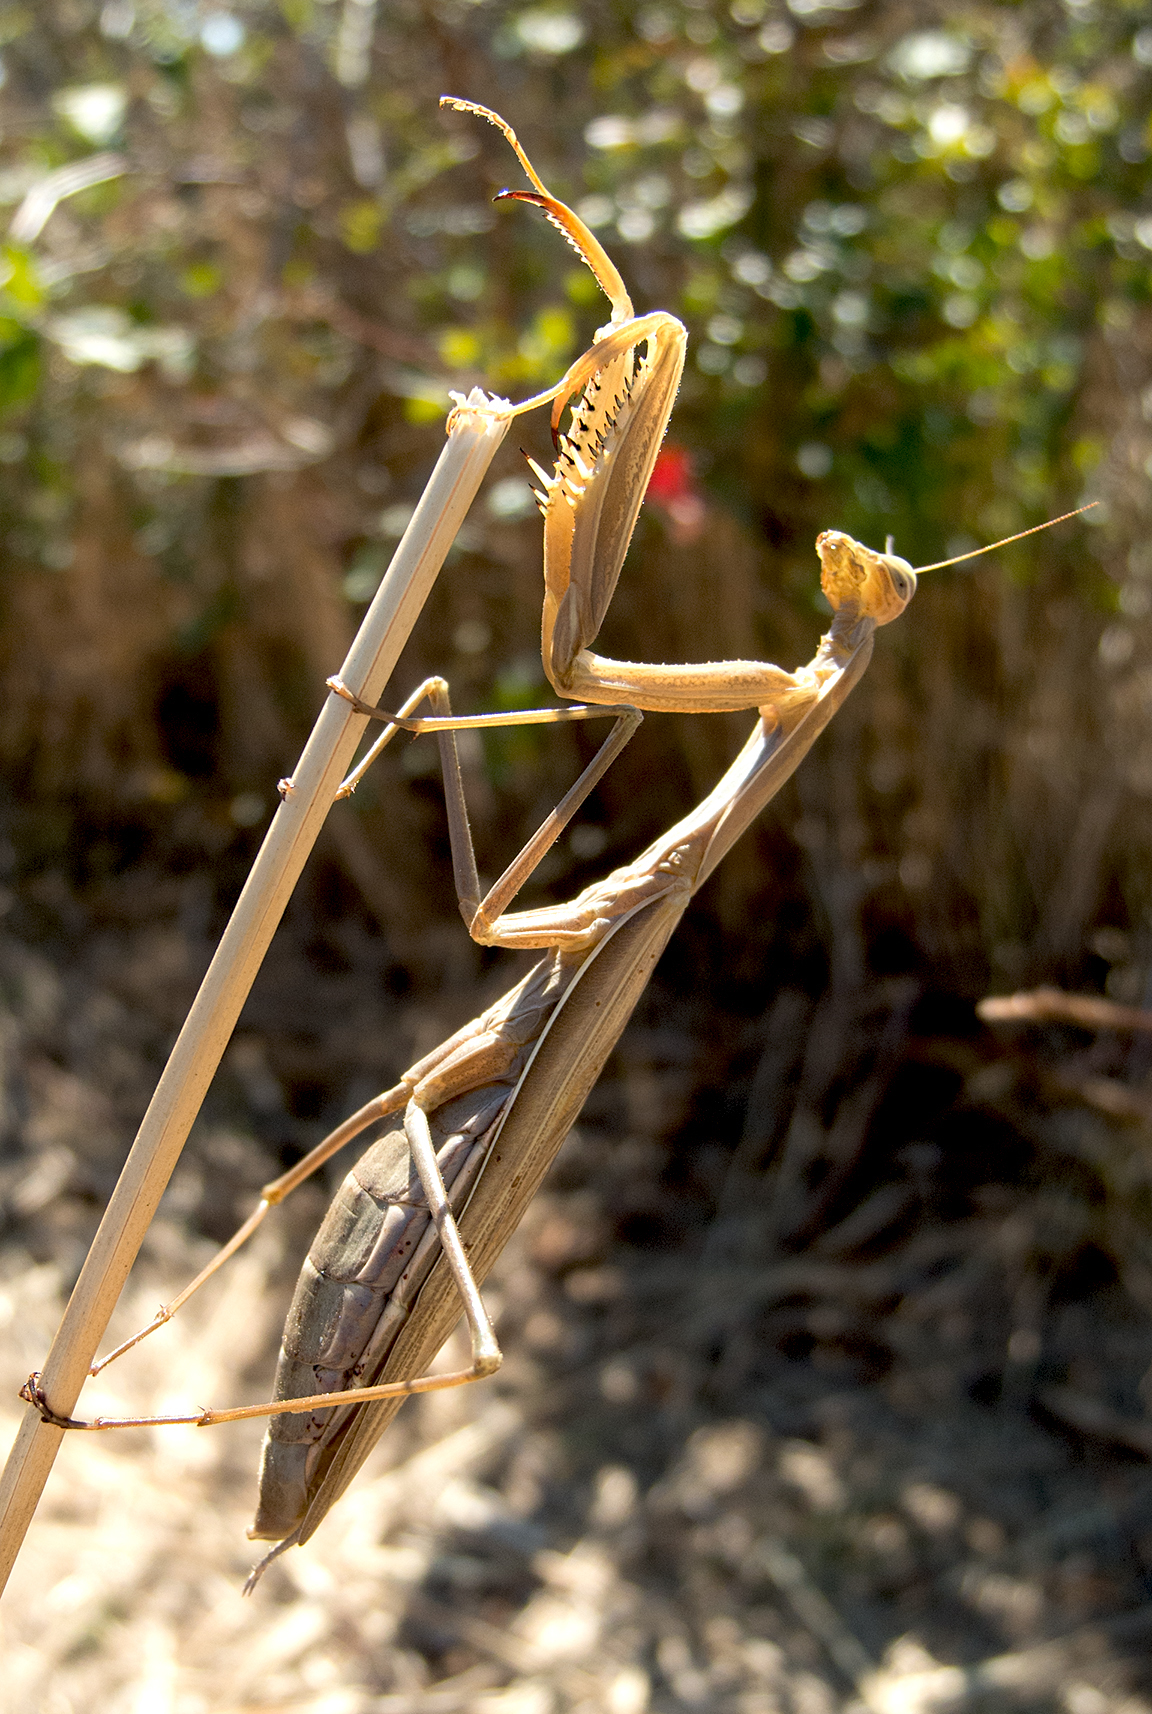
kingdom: Animalia
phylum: Arthropoda
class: Insecta
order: Mantodea
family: Mantidae
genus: Mantis
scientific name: Mantis religiosa
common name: Praying mantis
